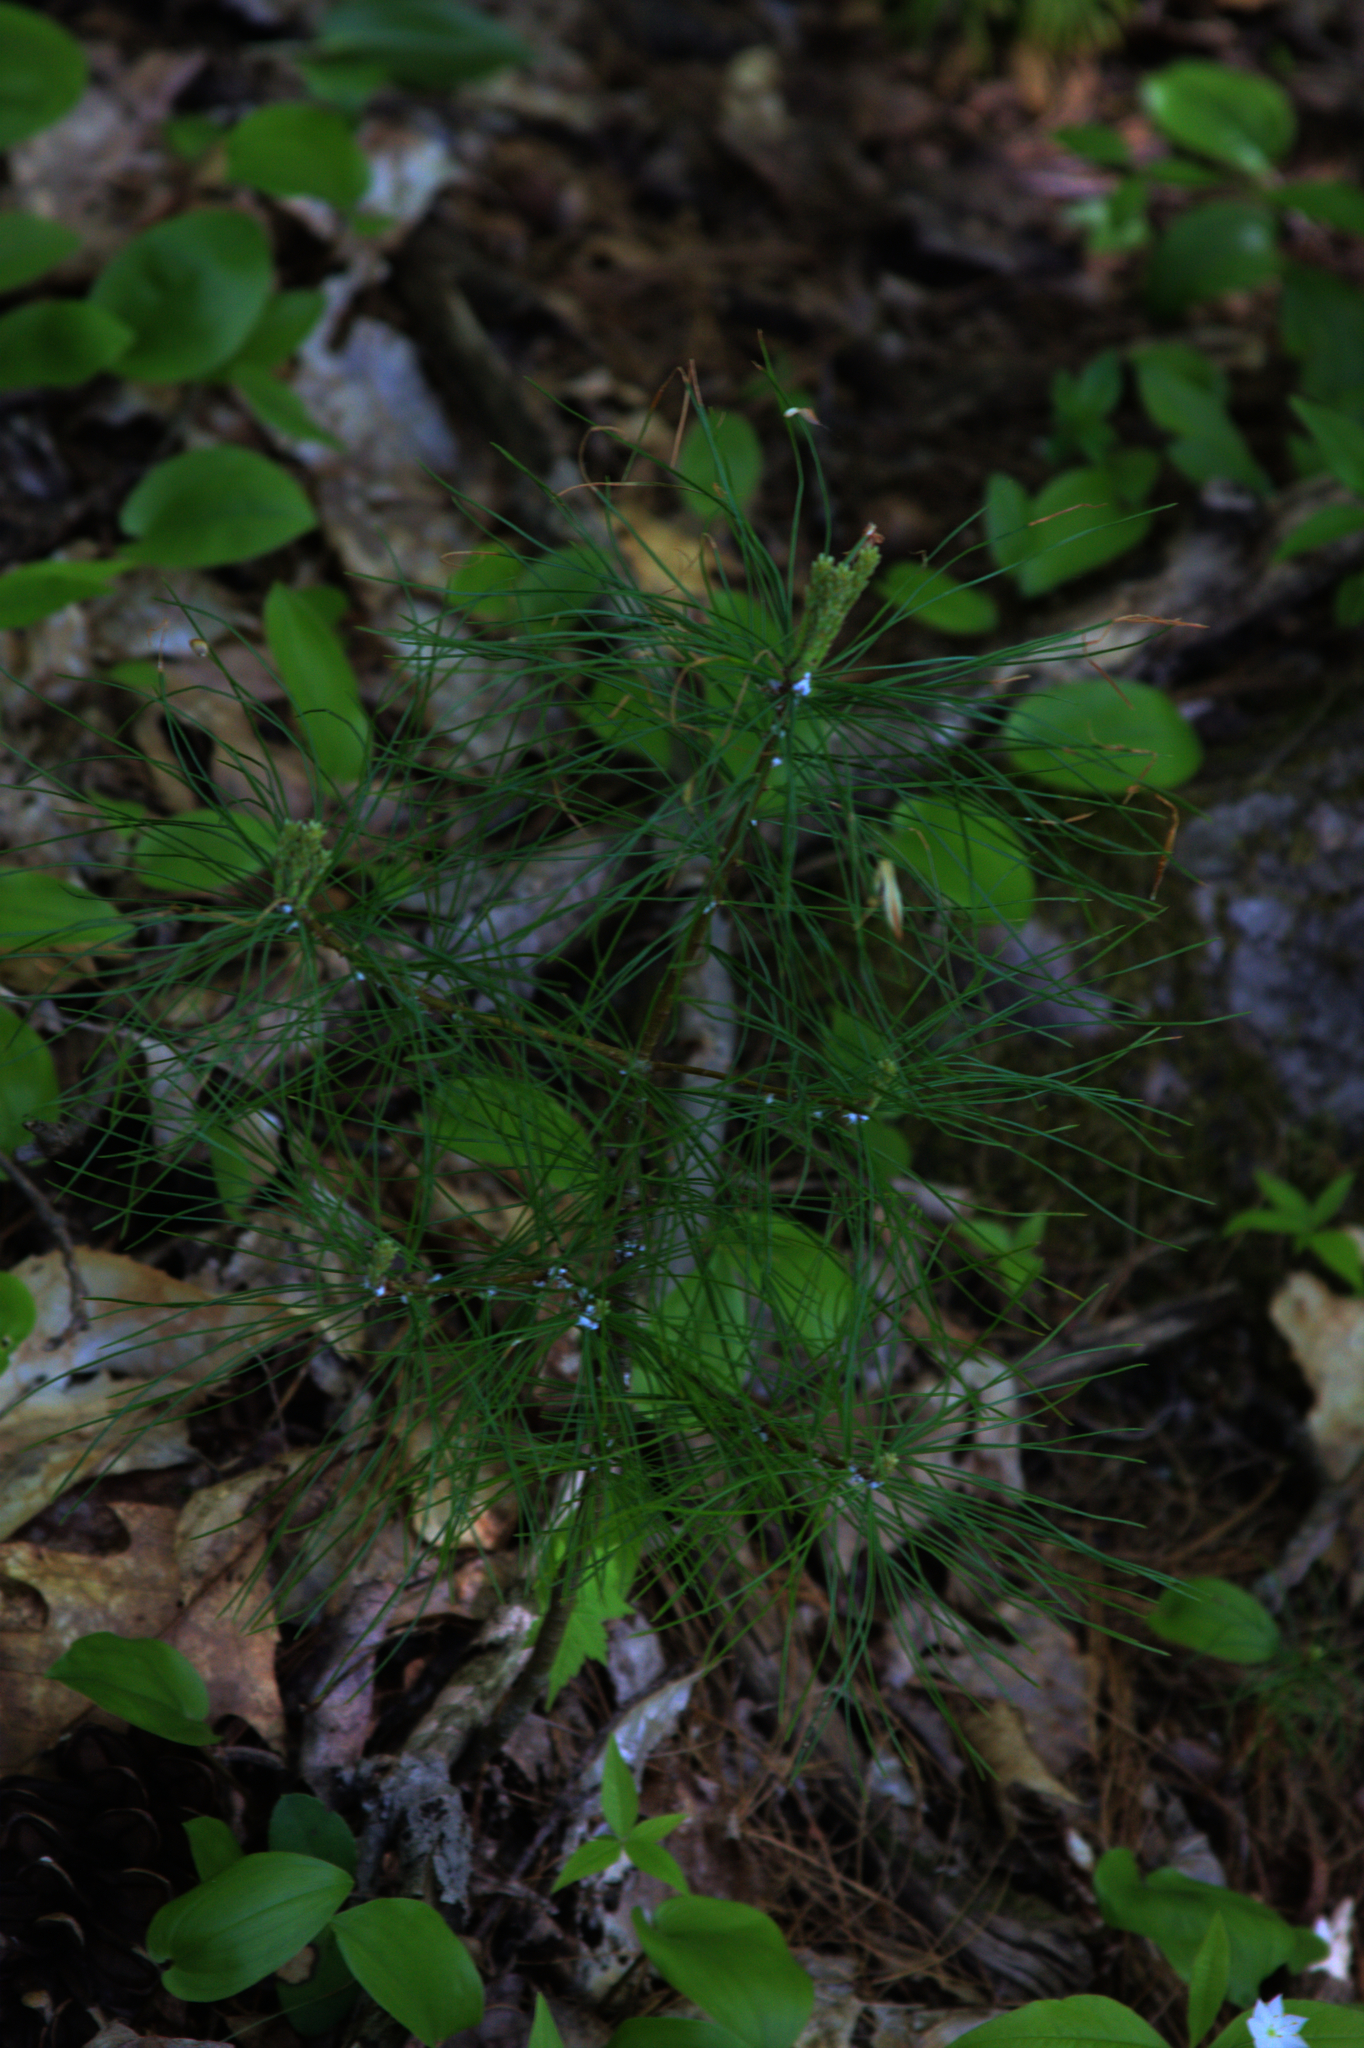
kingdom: Plantae
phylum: Tracheophyta
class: Pinopsida
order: Pinales
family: Pinaceae
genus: Pinus
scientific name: Pinus strobus
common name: Weymouth pine
